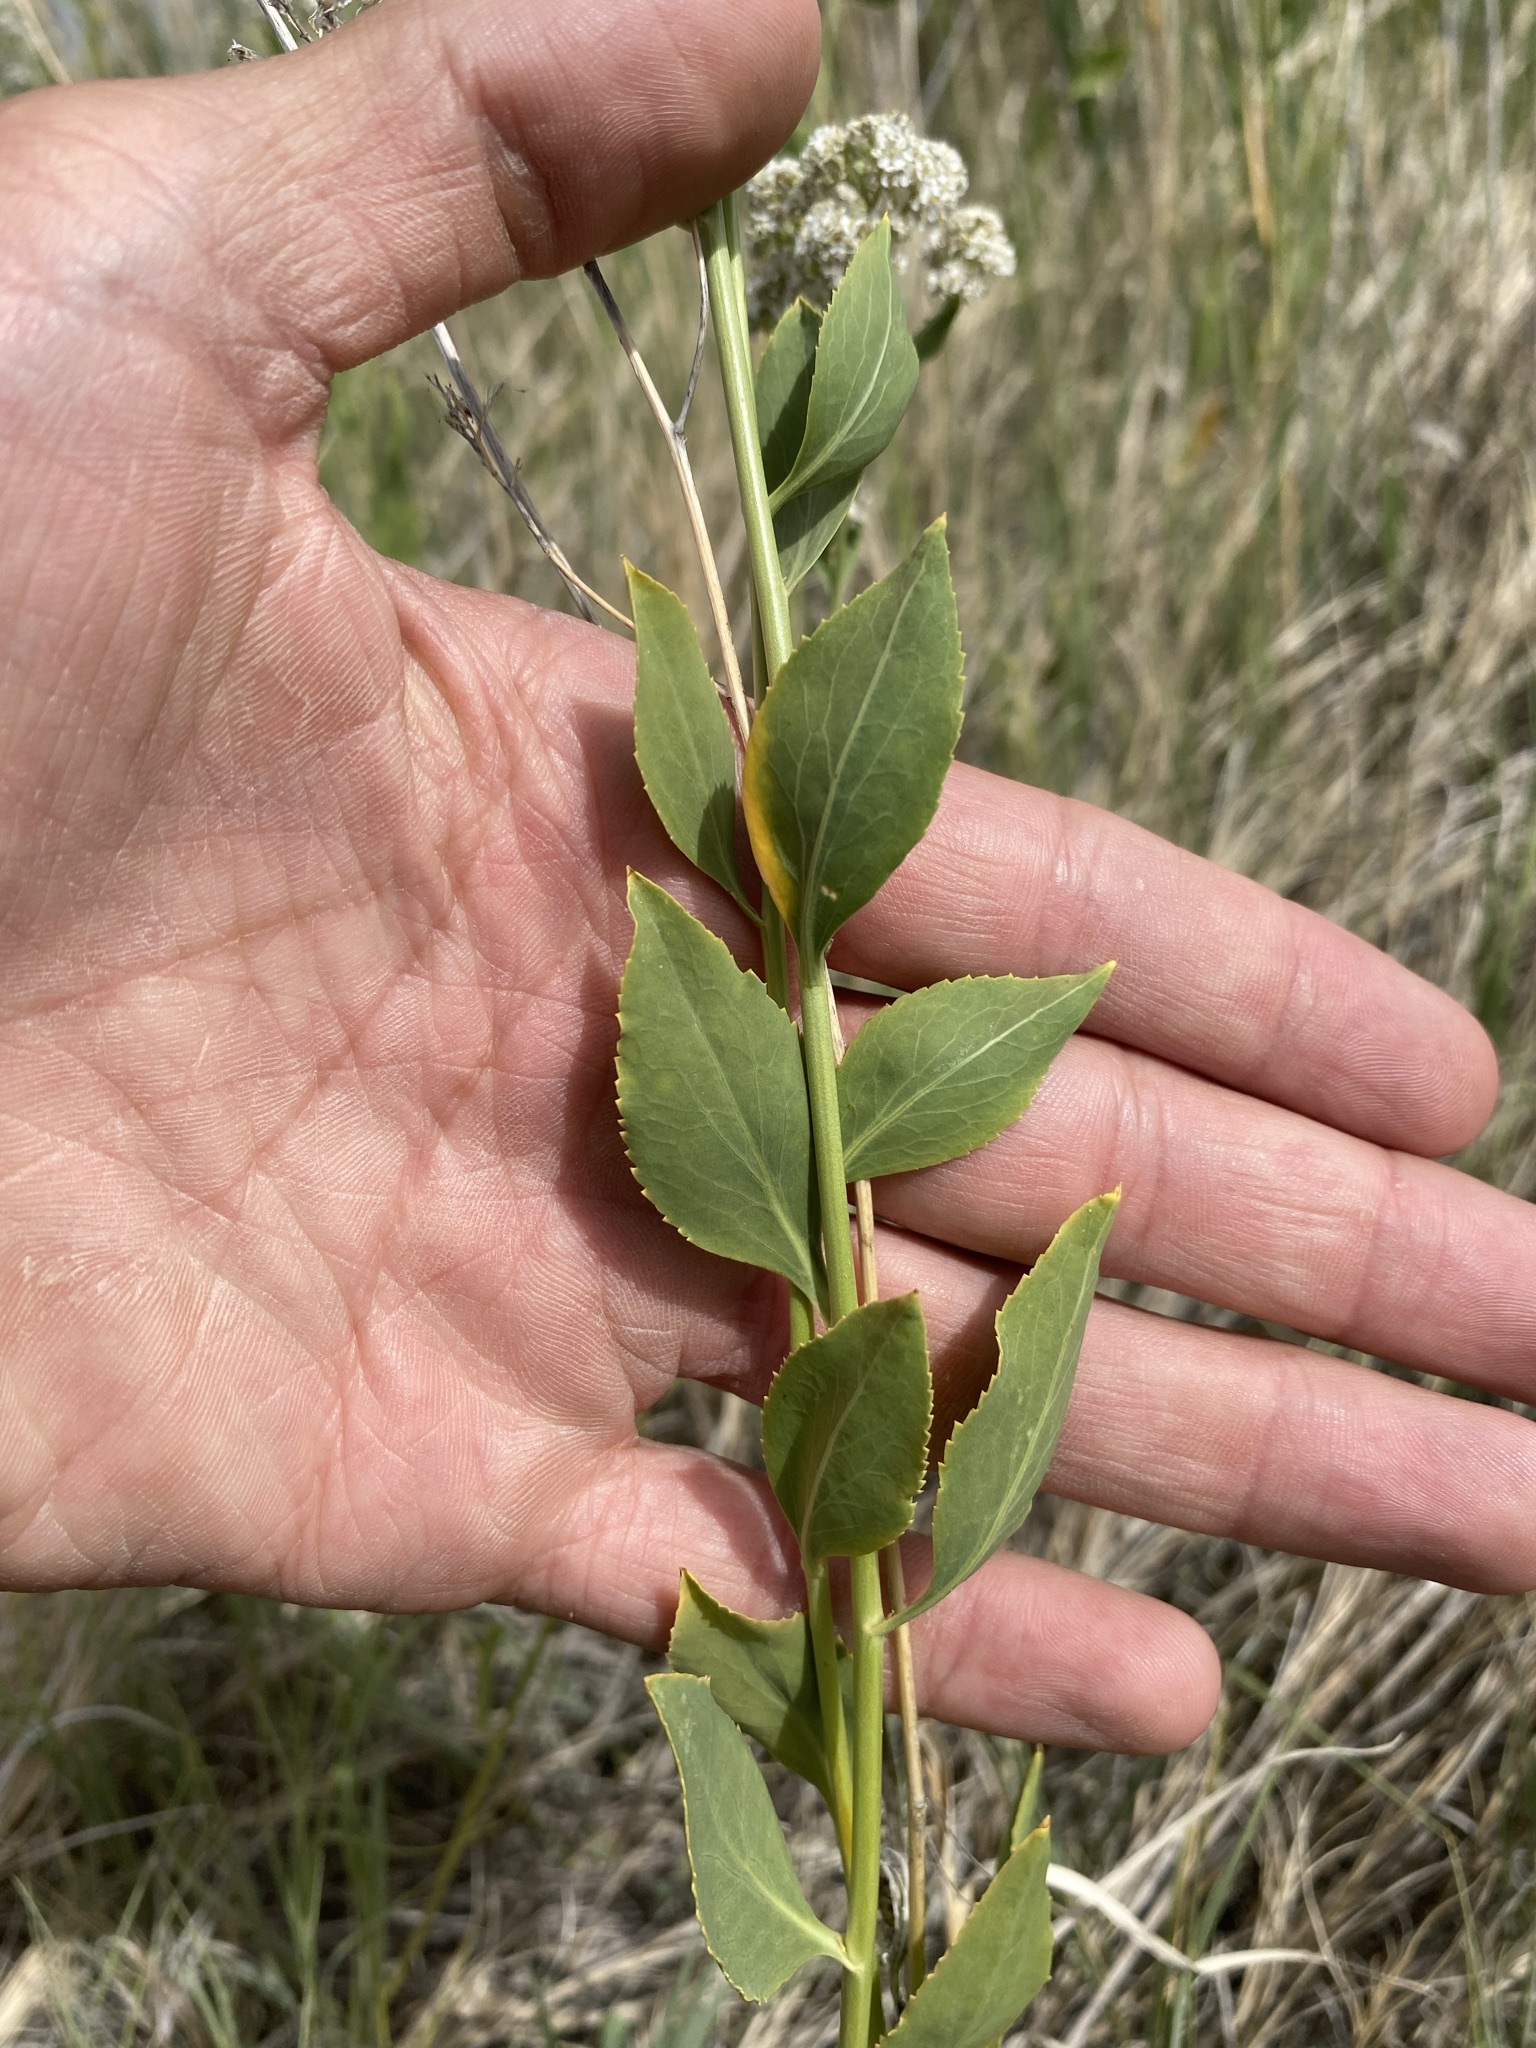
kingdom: Plantae
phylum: Tracheophyta
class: Magnoliopsida
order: Brassicales
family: Brassicaceae
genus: Lepidium
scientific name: Lepidium latifolium
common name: Dittander
